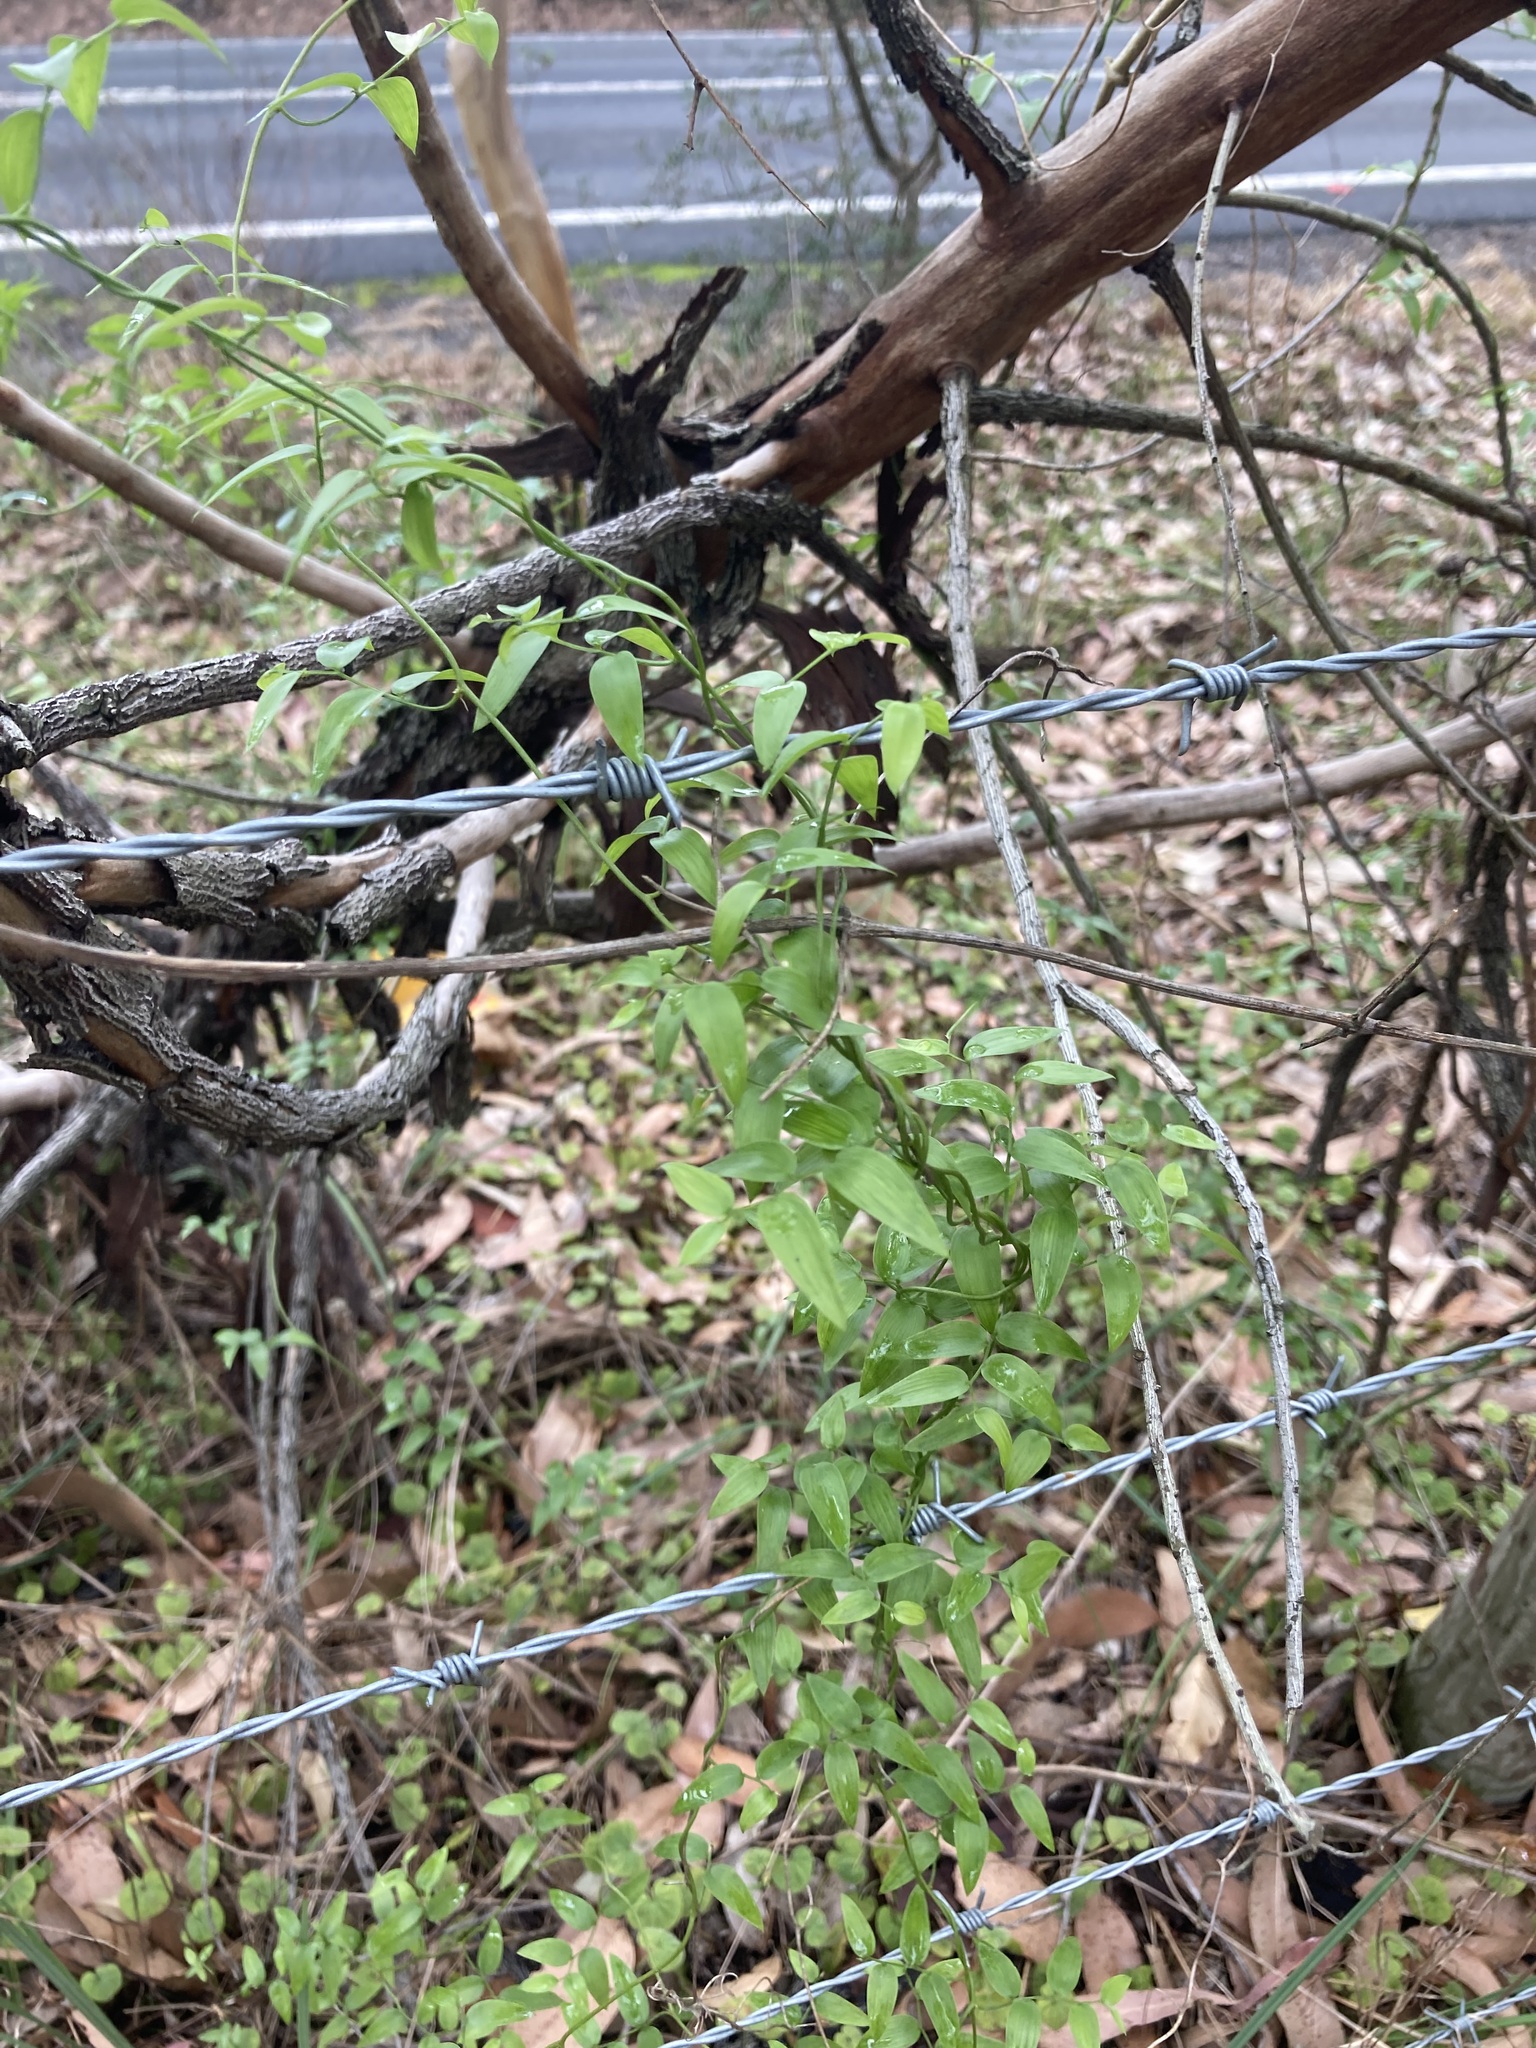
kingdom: Plantae
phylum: Tracheophyta
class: Liliopsida
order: Asparagales
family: Asparagaceae
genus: Asparagus
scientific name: Asparagus asparagoides
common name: African asparagus fern
